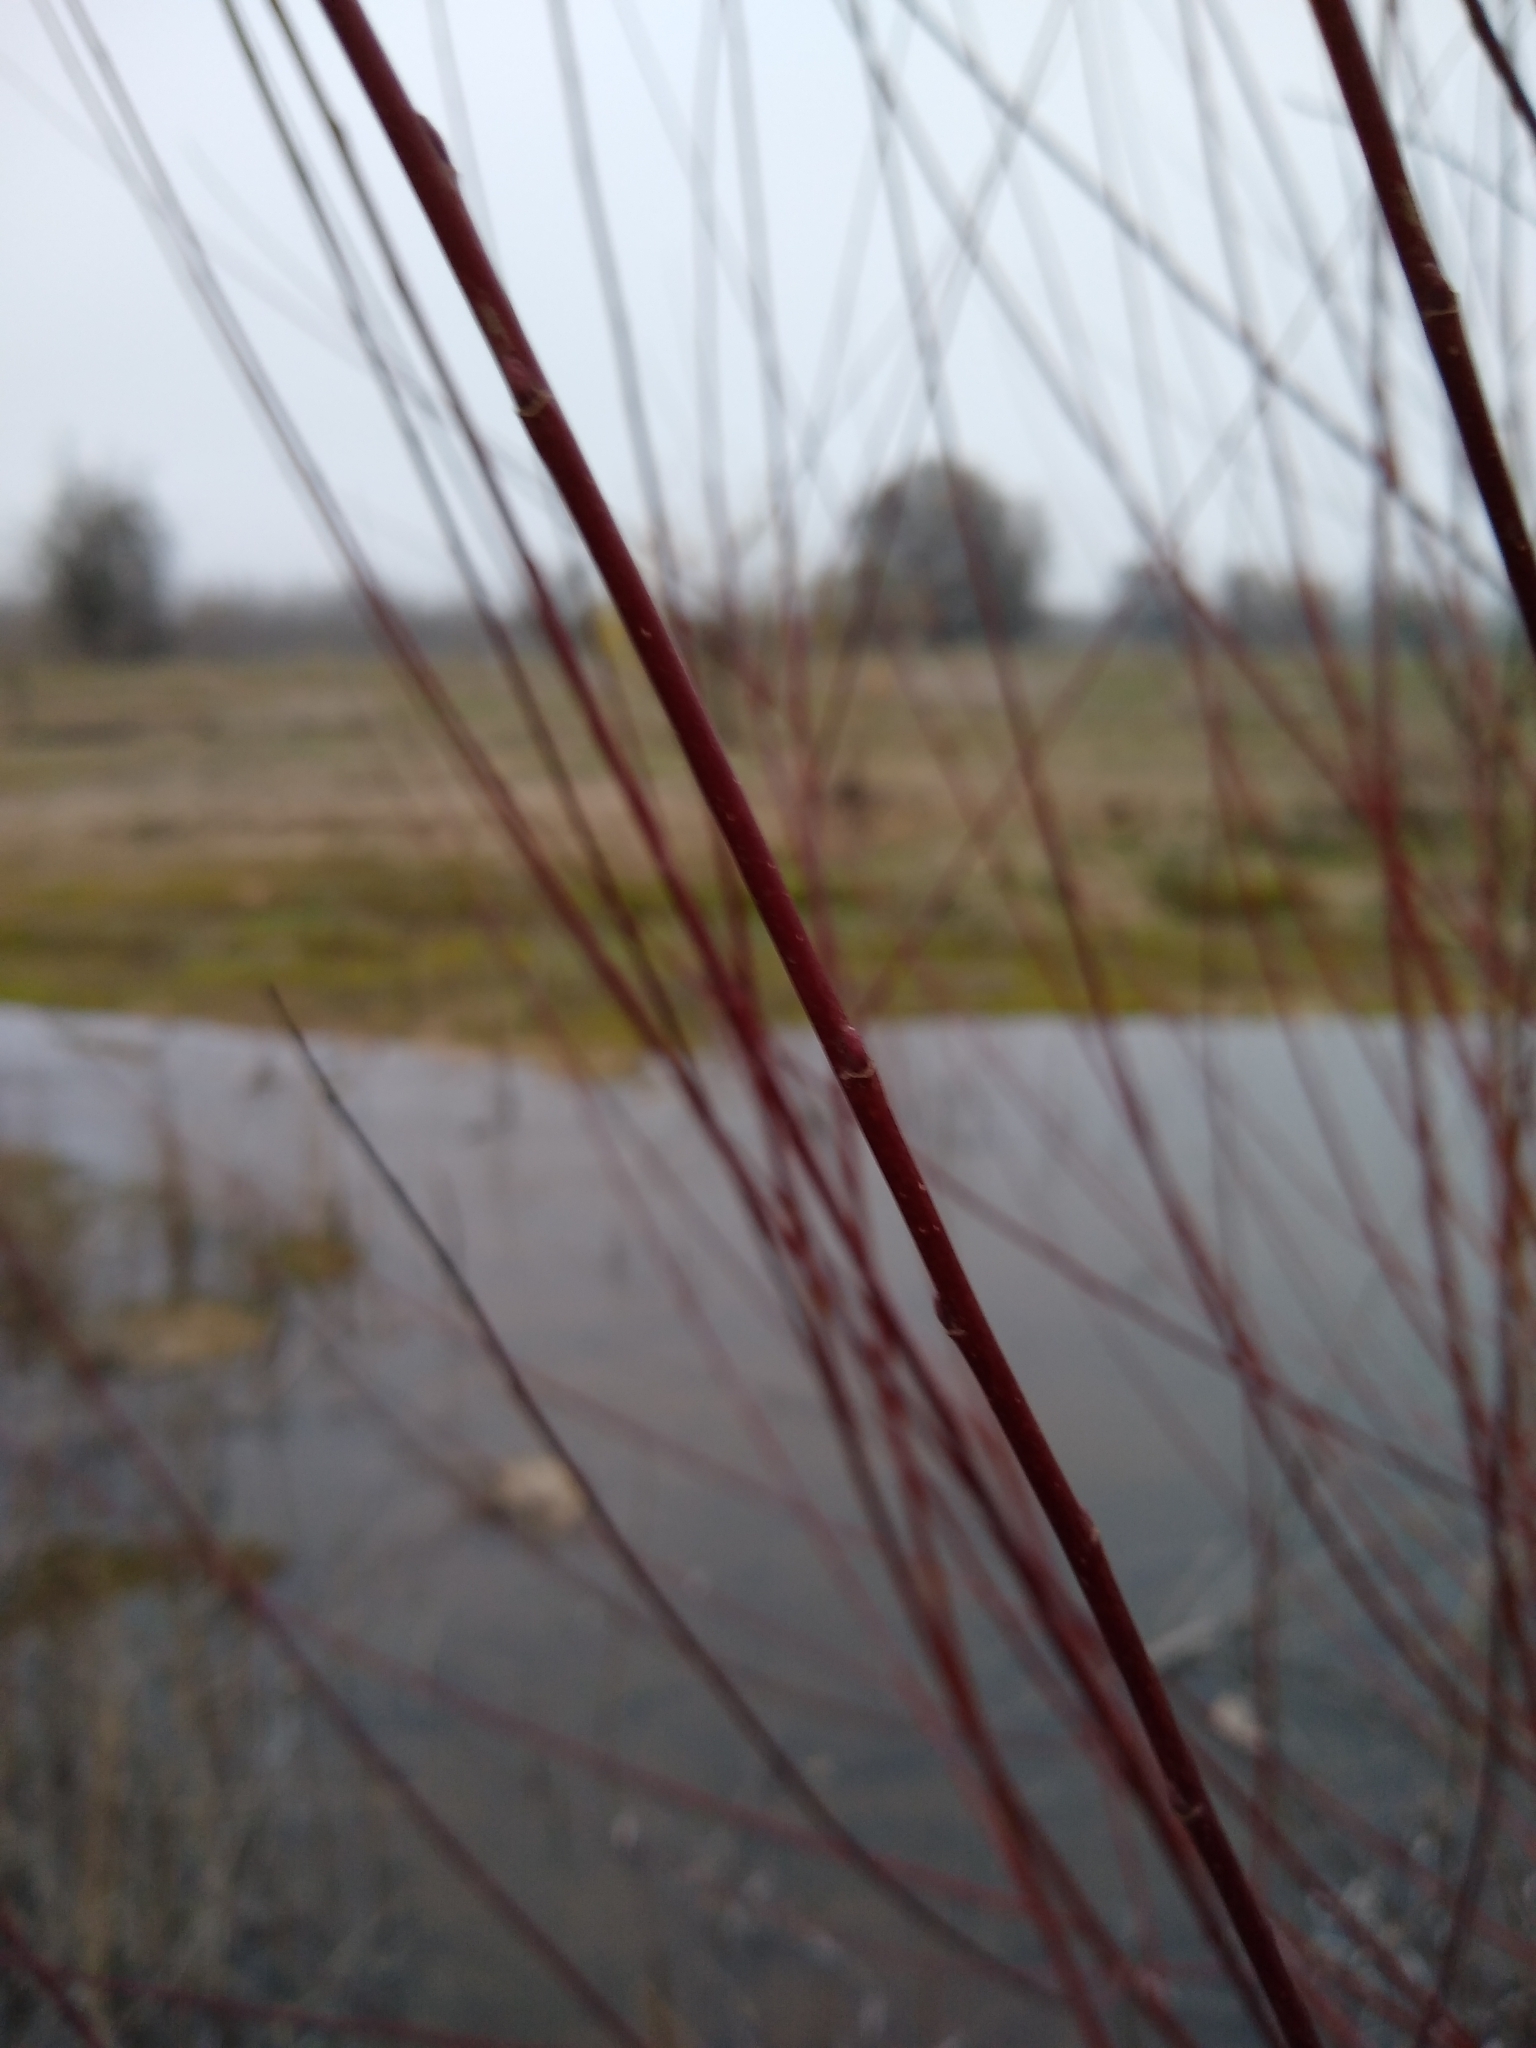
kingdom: Plantae
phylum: Tracheophyta
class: Magnoliopsida
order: Malpighiales
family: Salicaceae
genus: Salix
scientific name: Salix laevigata
